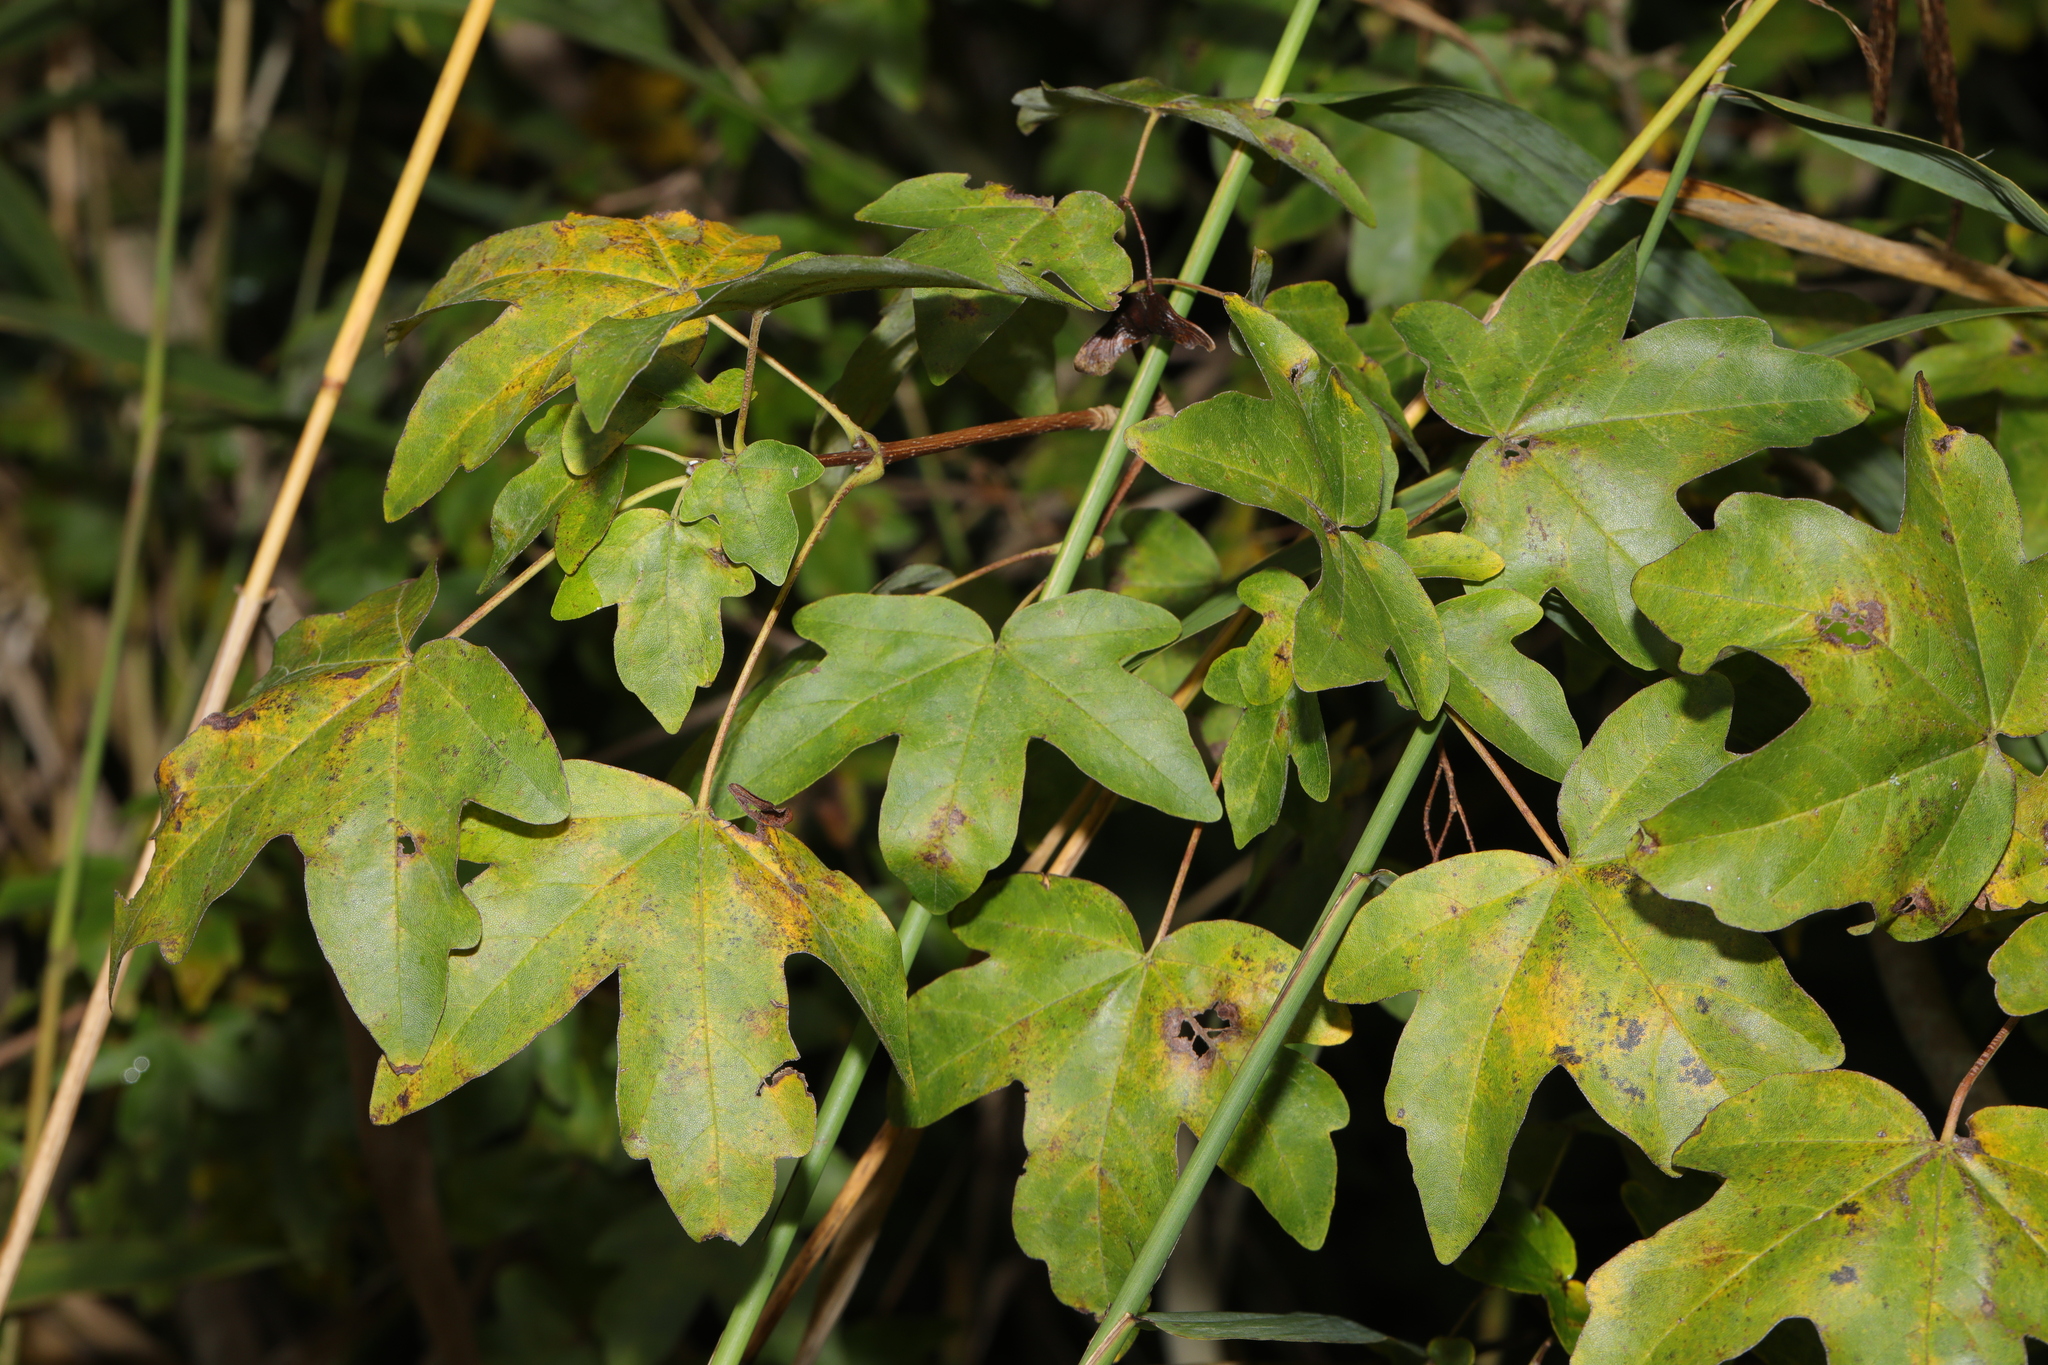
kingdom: Plantae
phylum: Tracheophyta
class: Magnoliopsida
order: Sapindales
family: Sapindaceae
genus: Acer
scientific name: Acer campestre
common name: Field maple
